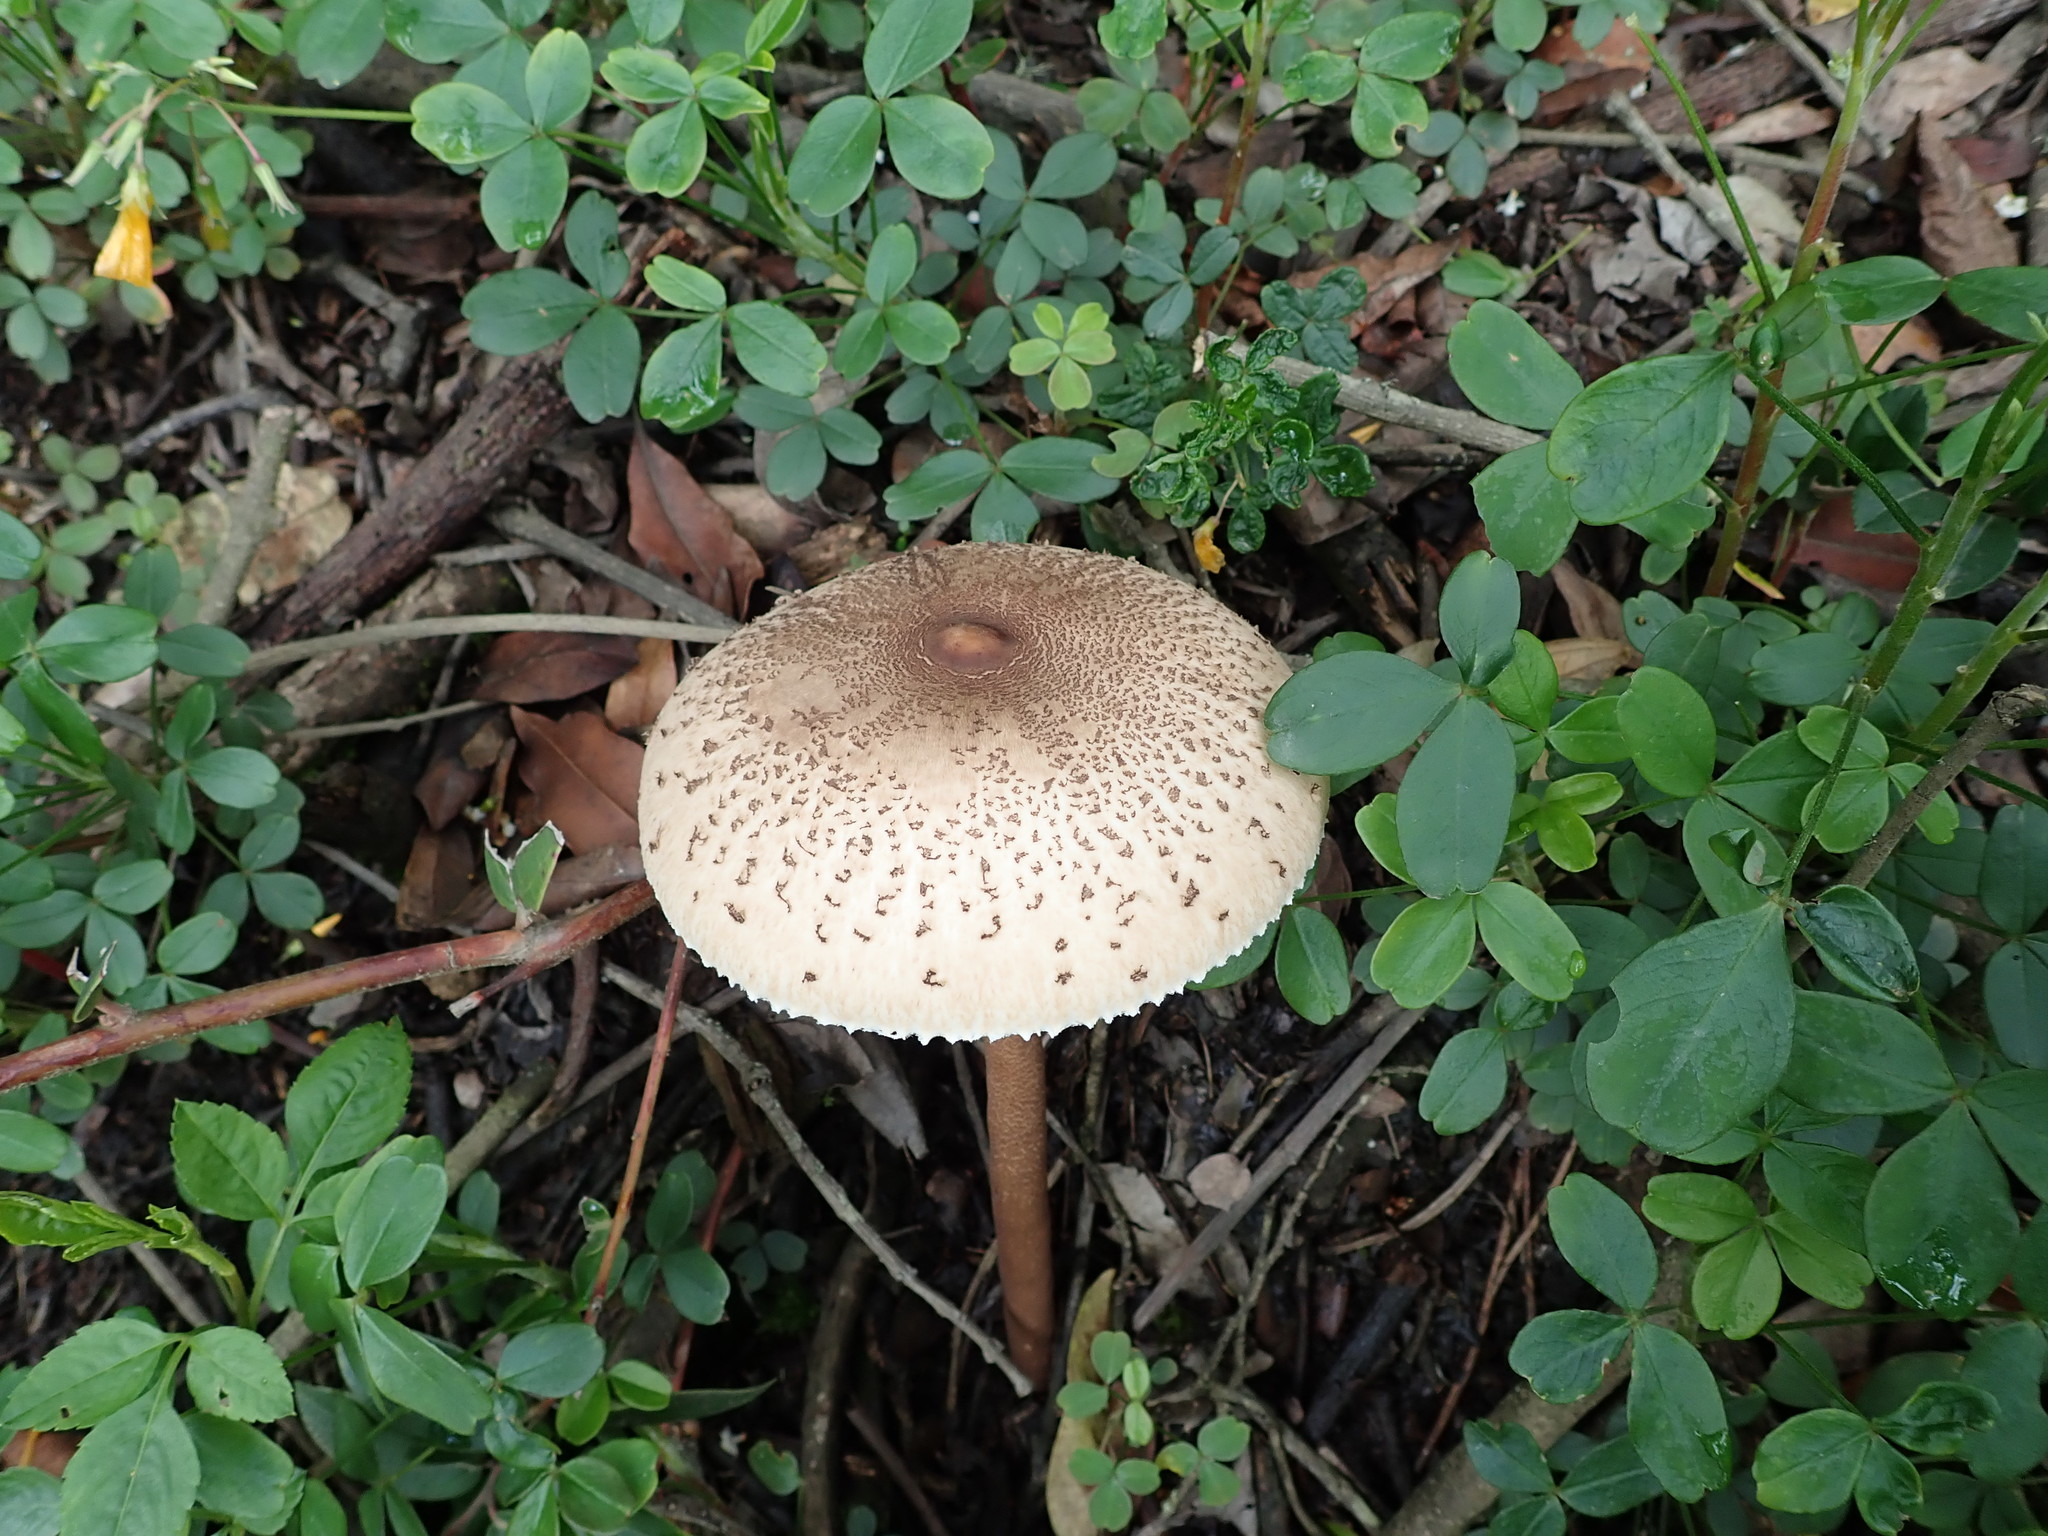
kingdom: Fungi
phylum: Basidiomycota
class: Agaricomycetes
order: Agaricales
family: Agaricaceae
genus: Macrolepiota
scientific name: Macrolepiota colombiana
